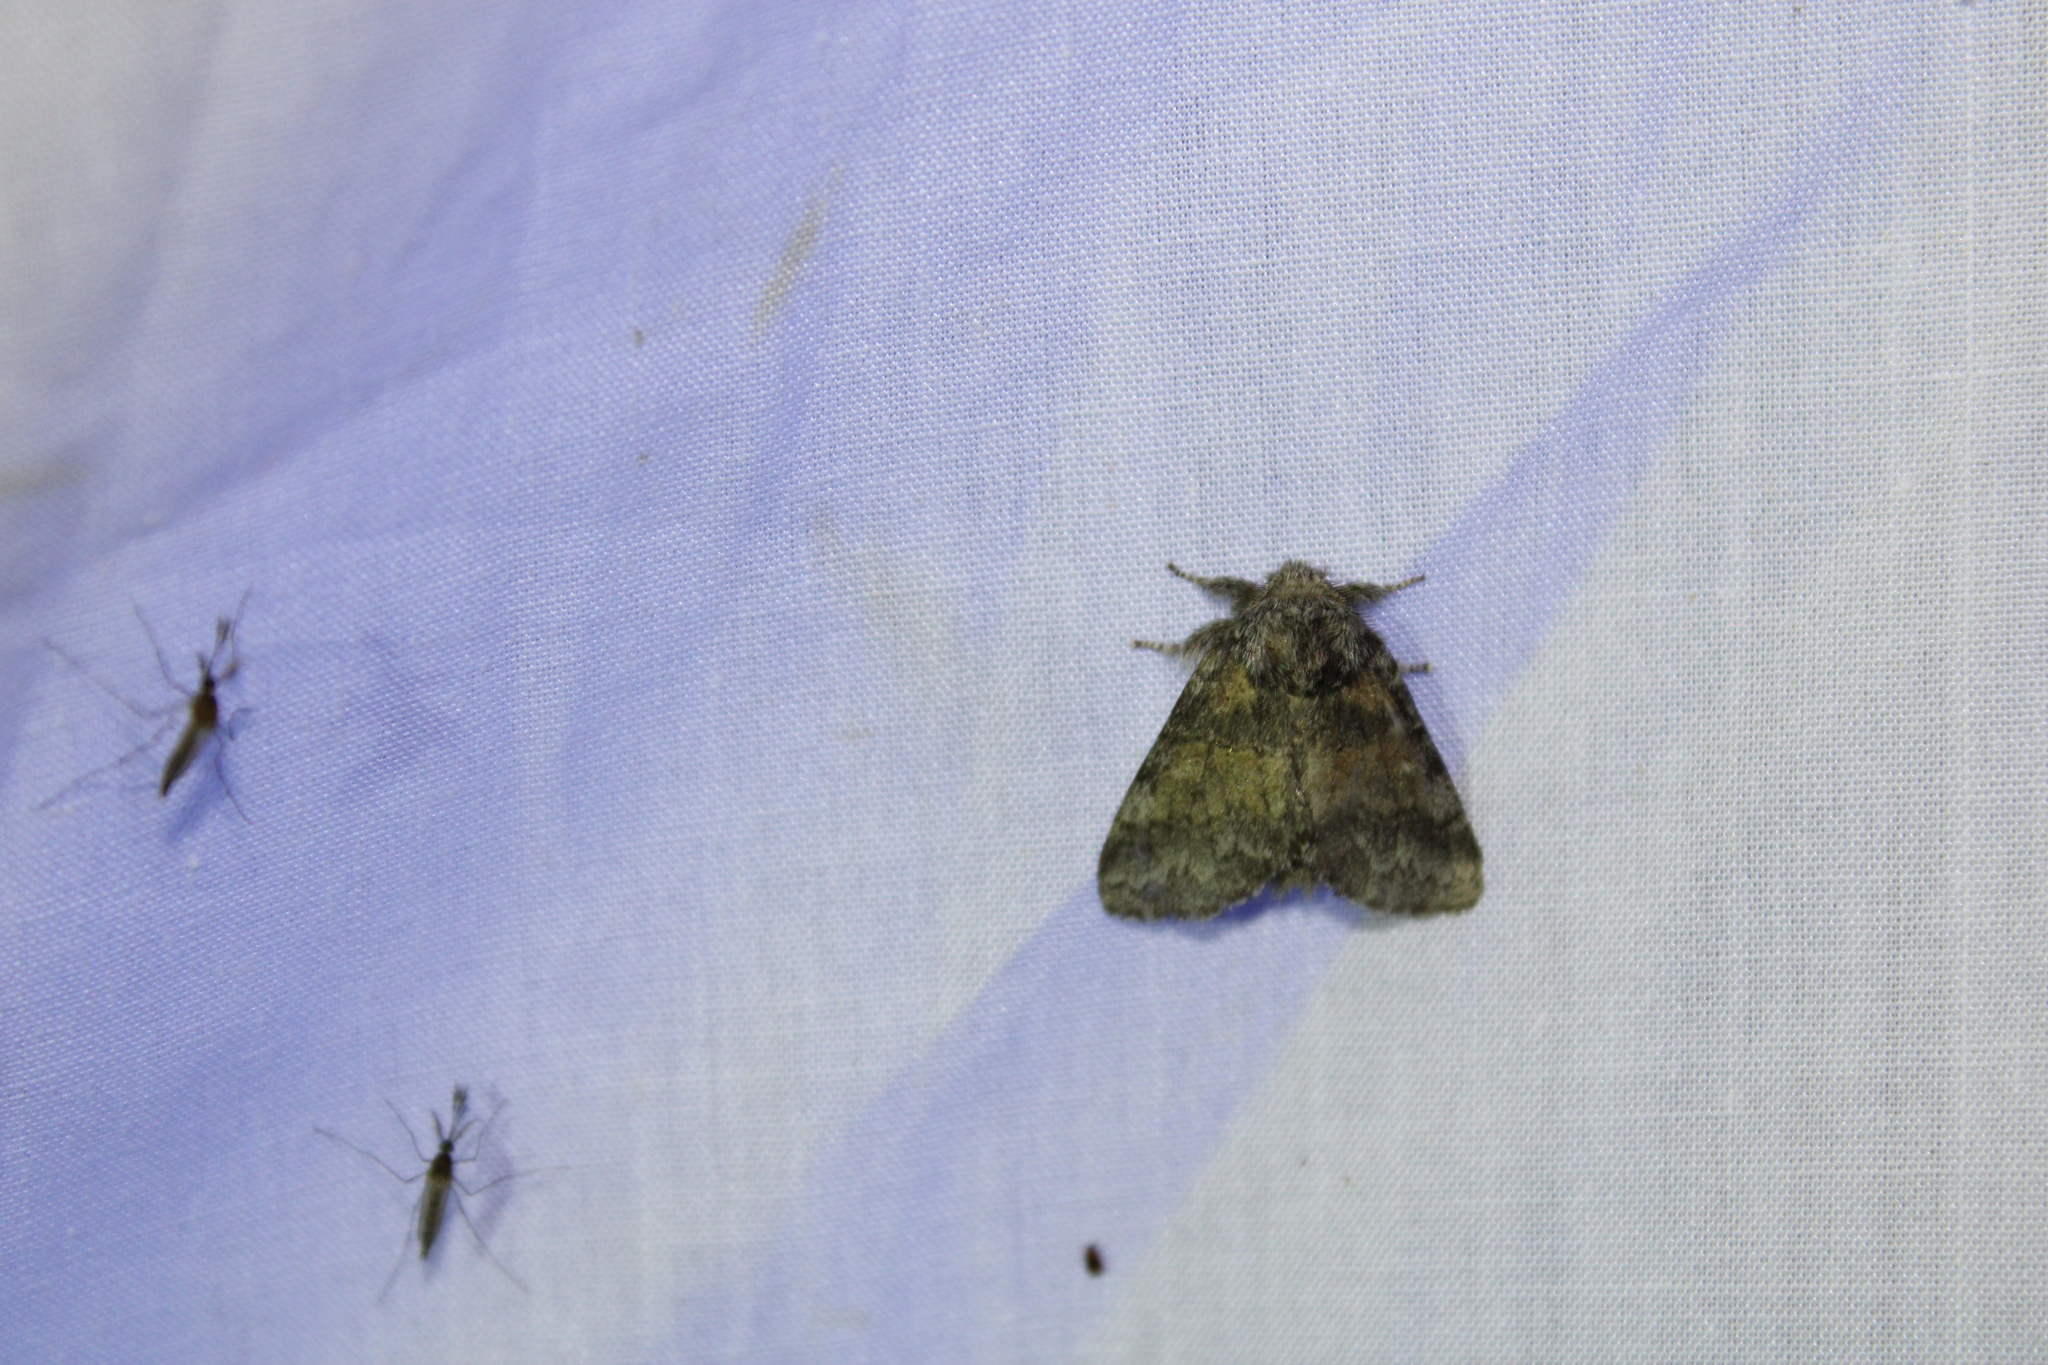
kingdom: Animalia
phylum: Arthropoda
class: Insecta
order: Lepidoptera
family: Notodontidae
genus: Gluphisia
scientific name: Gluphisia septentrionis
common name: Common gluphisia
